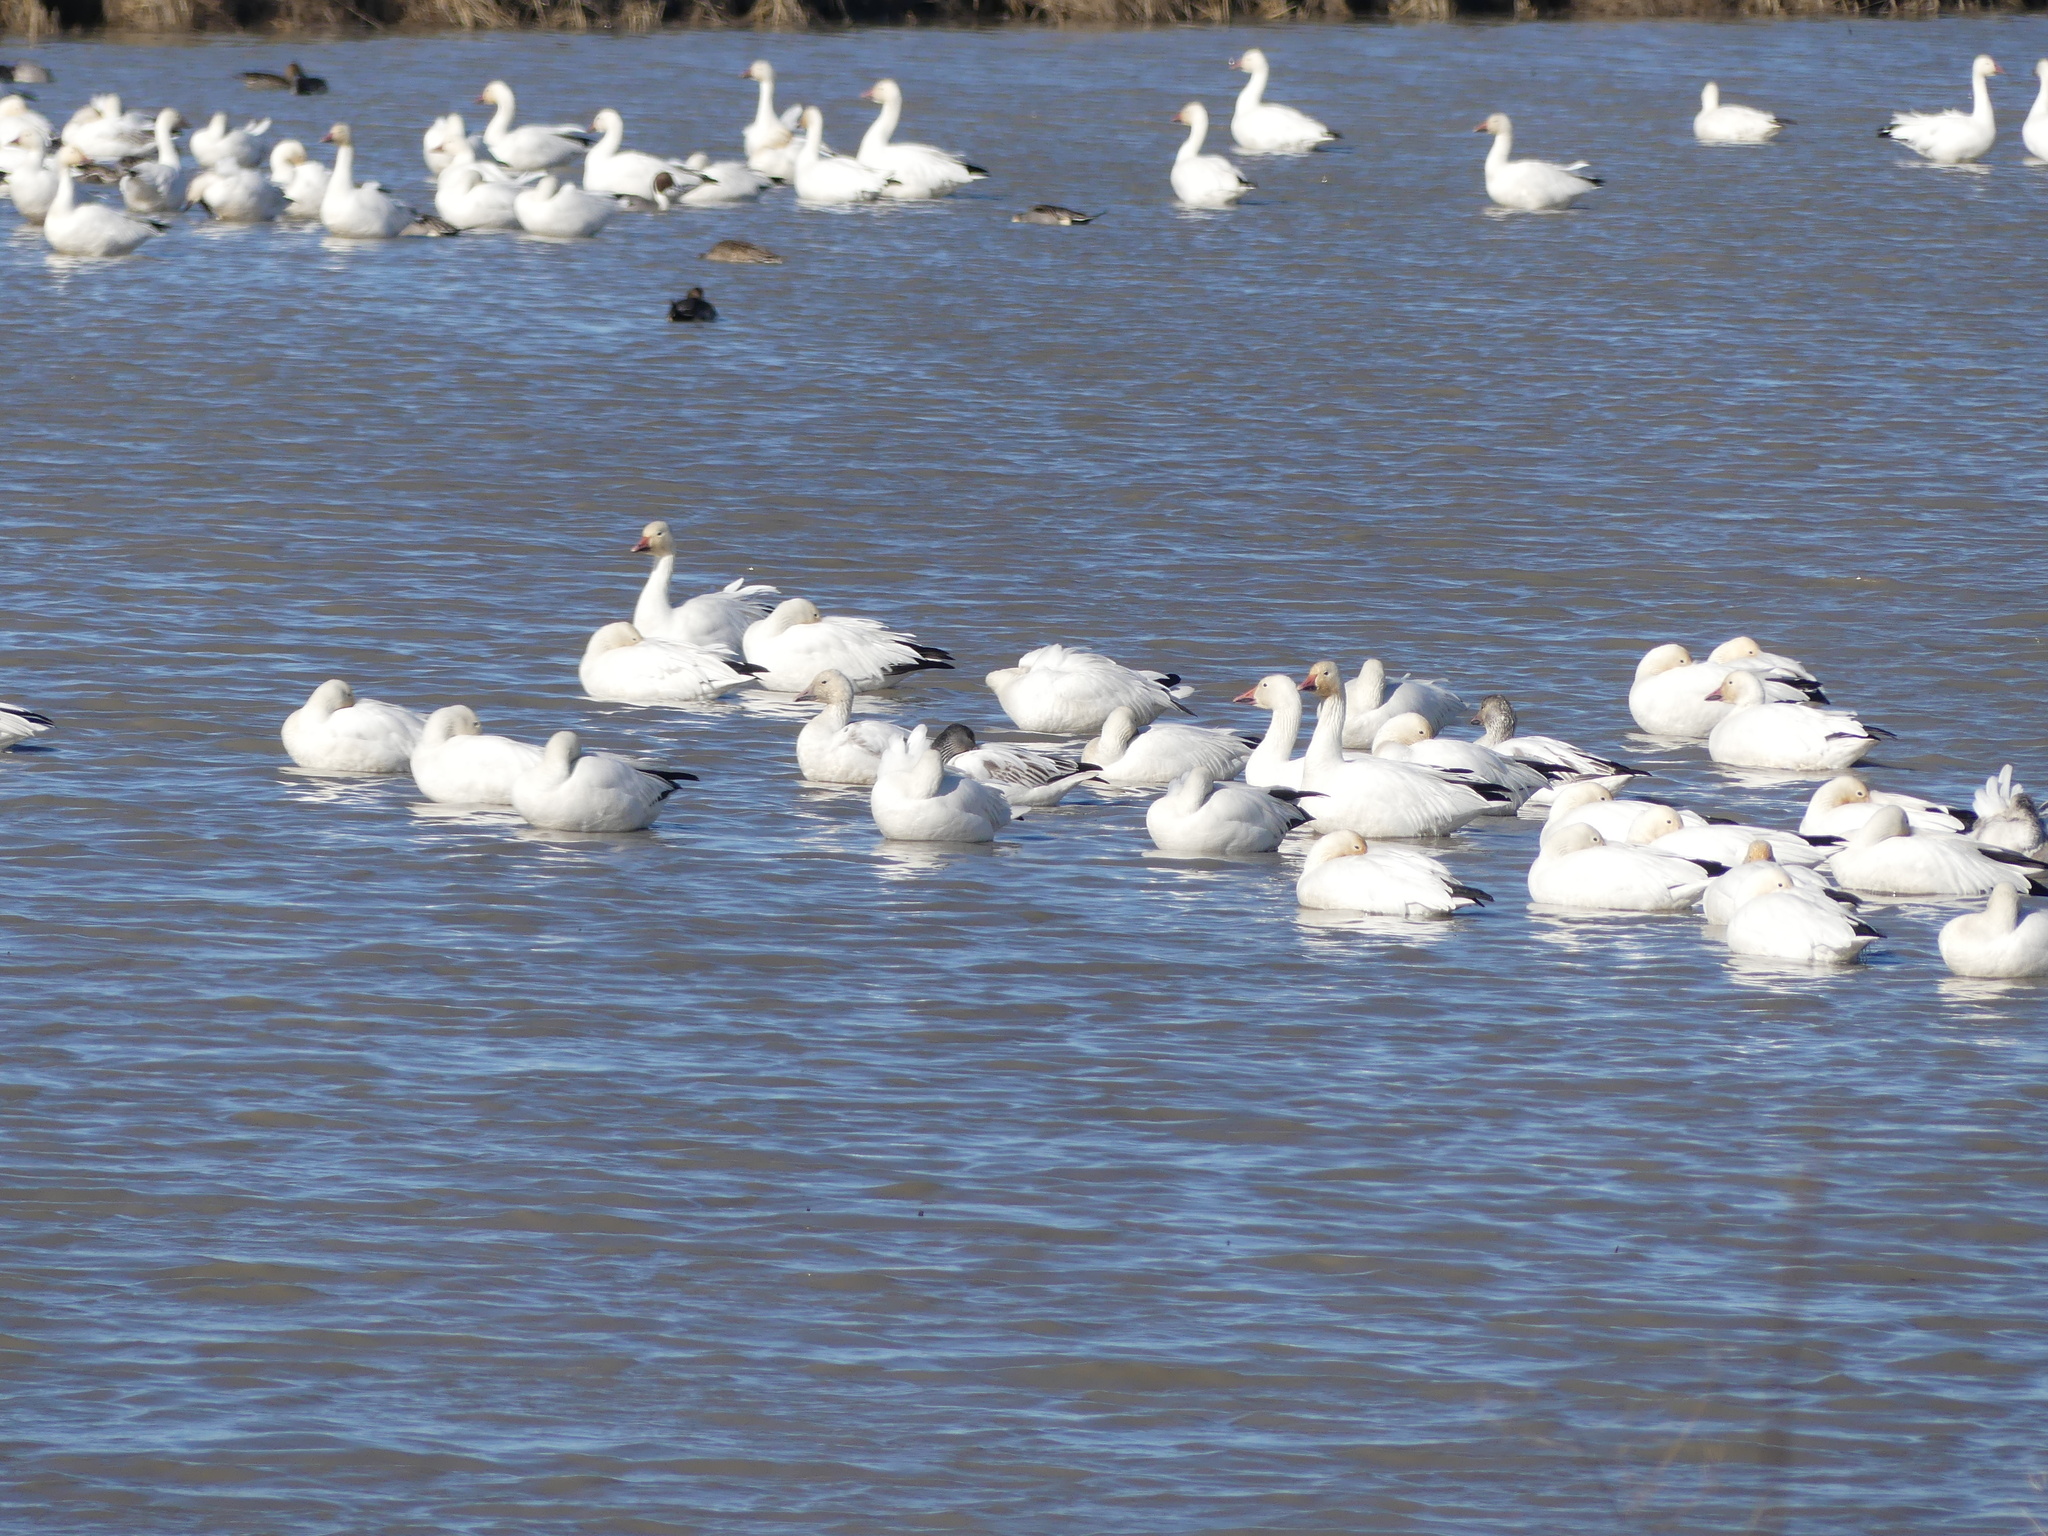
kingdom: Animalia
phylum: Chordata
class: Aves
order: Anseriformes
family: Anatidae
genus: Anser
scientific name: Anser caerulescens
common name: Snow goose
